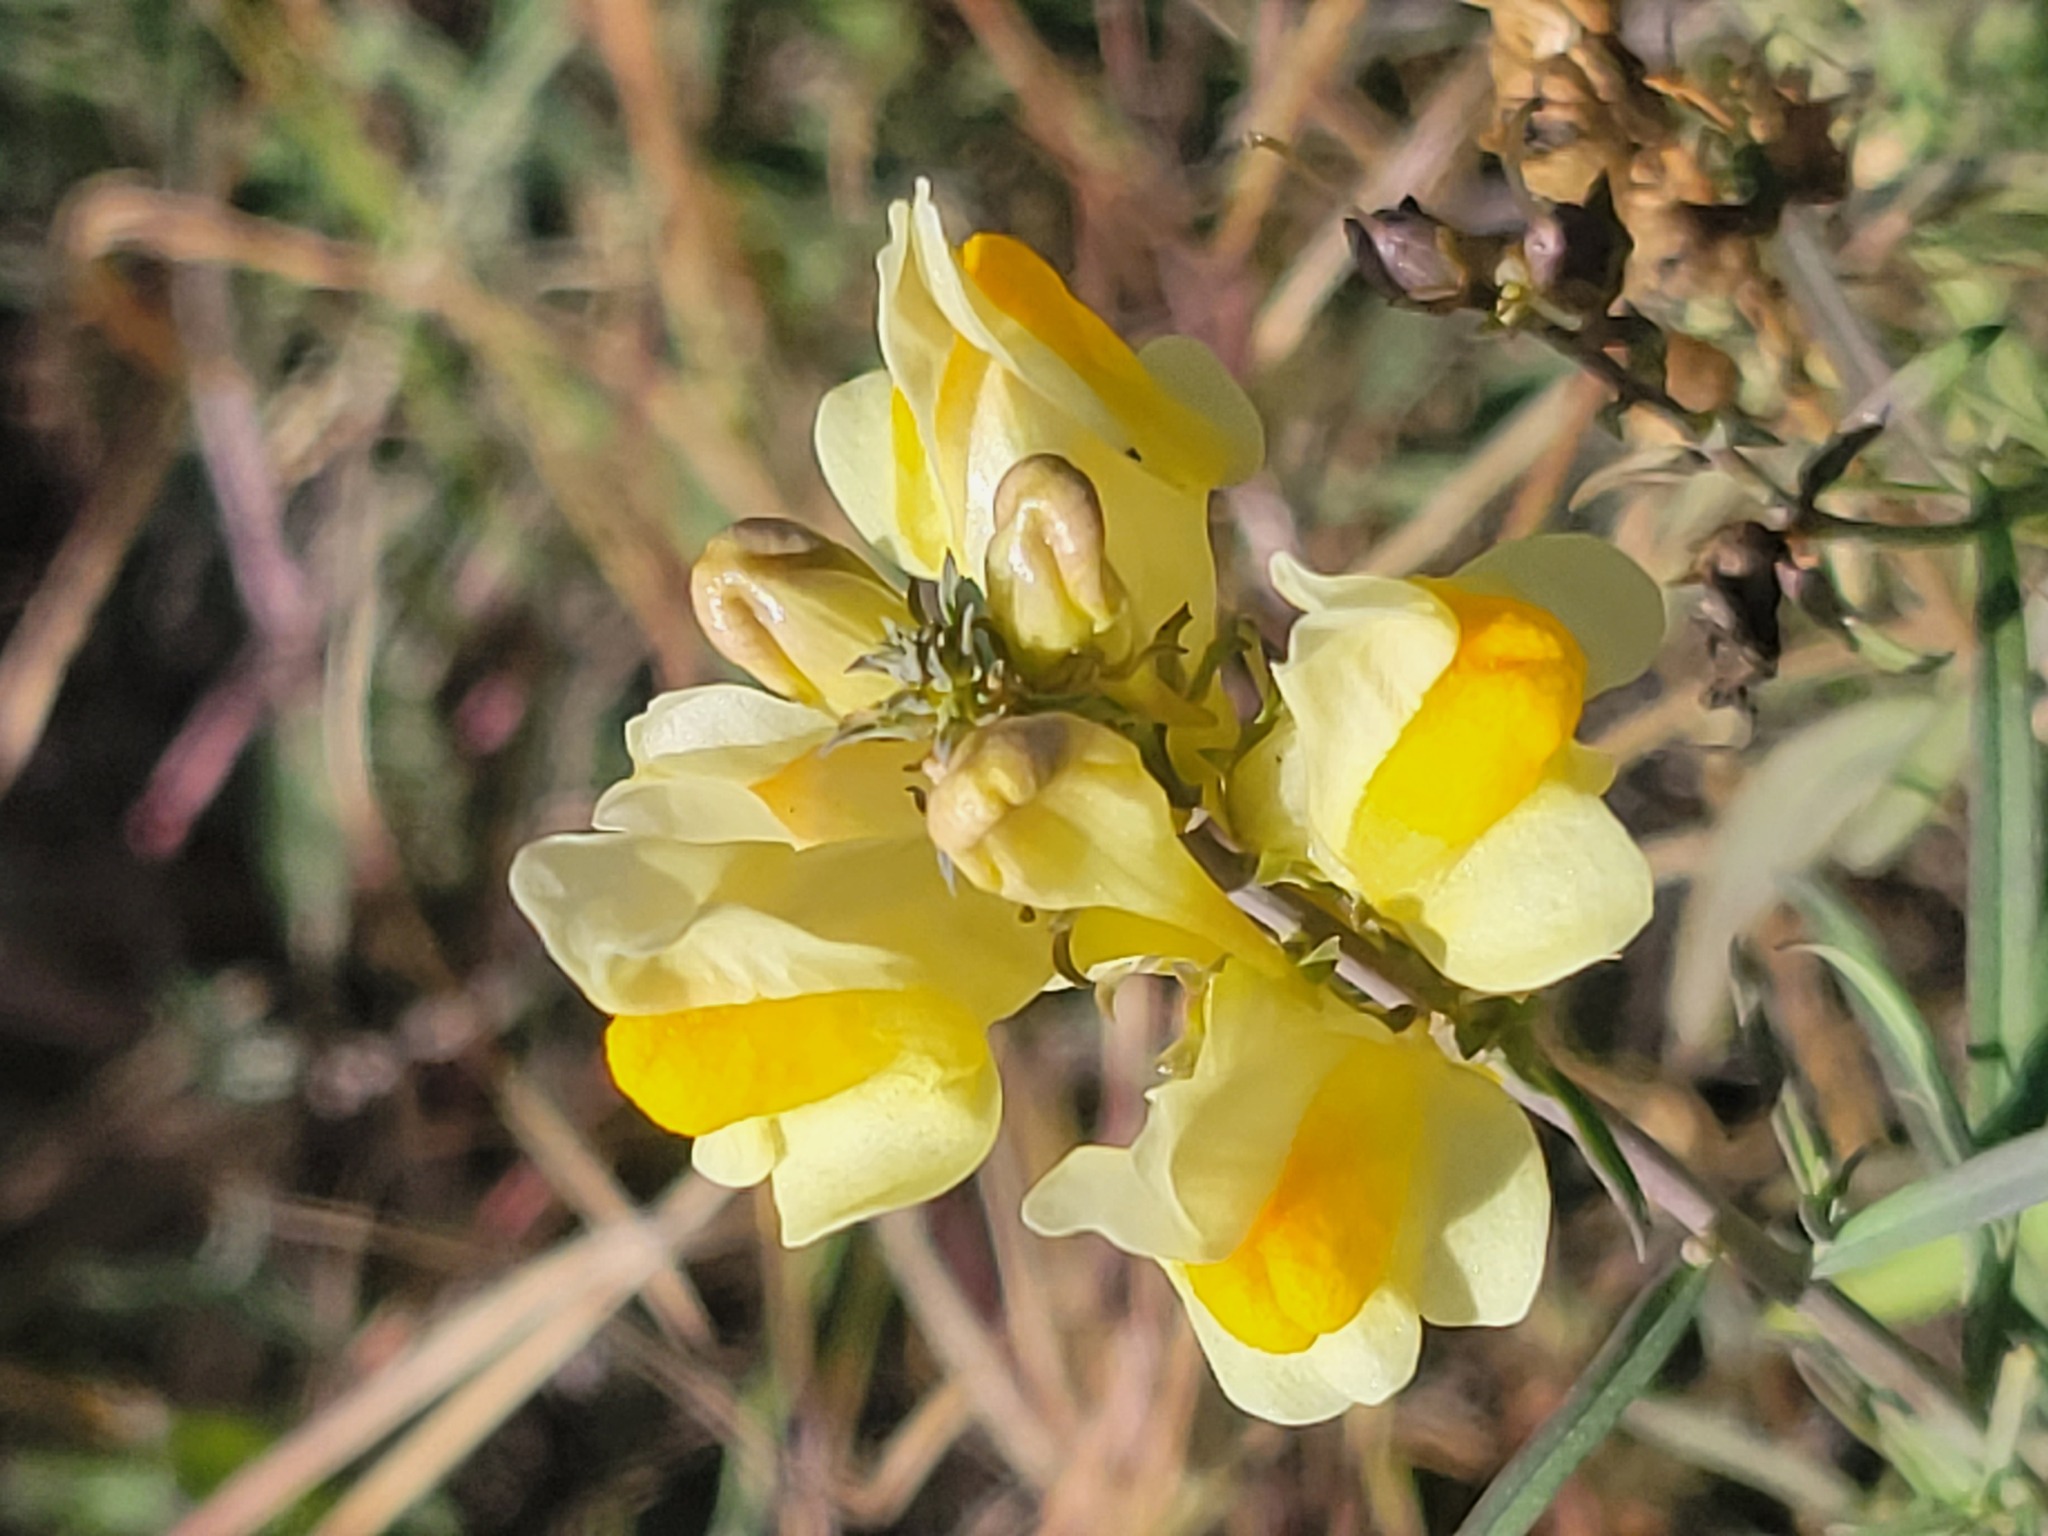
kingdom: Plantae
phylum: Tracheophyta
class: Magnoliopsida
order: Lamiales
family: Plantaginaceae
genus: Linaria
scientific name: Linaria vulgaris
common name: Butter and eggs
